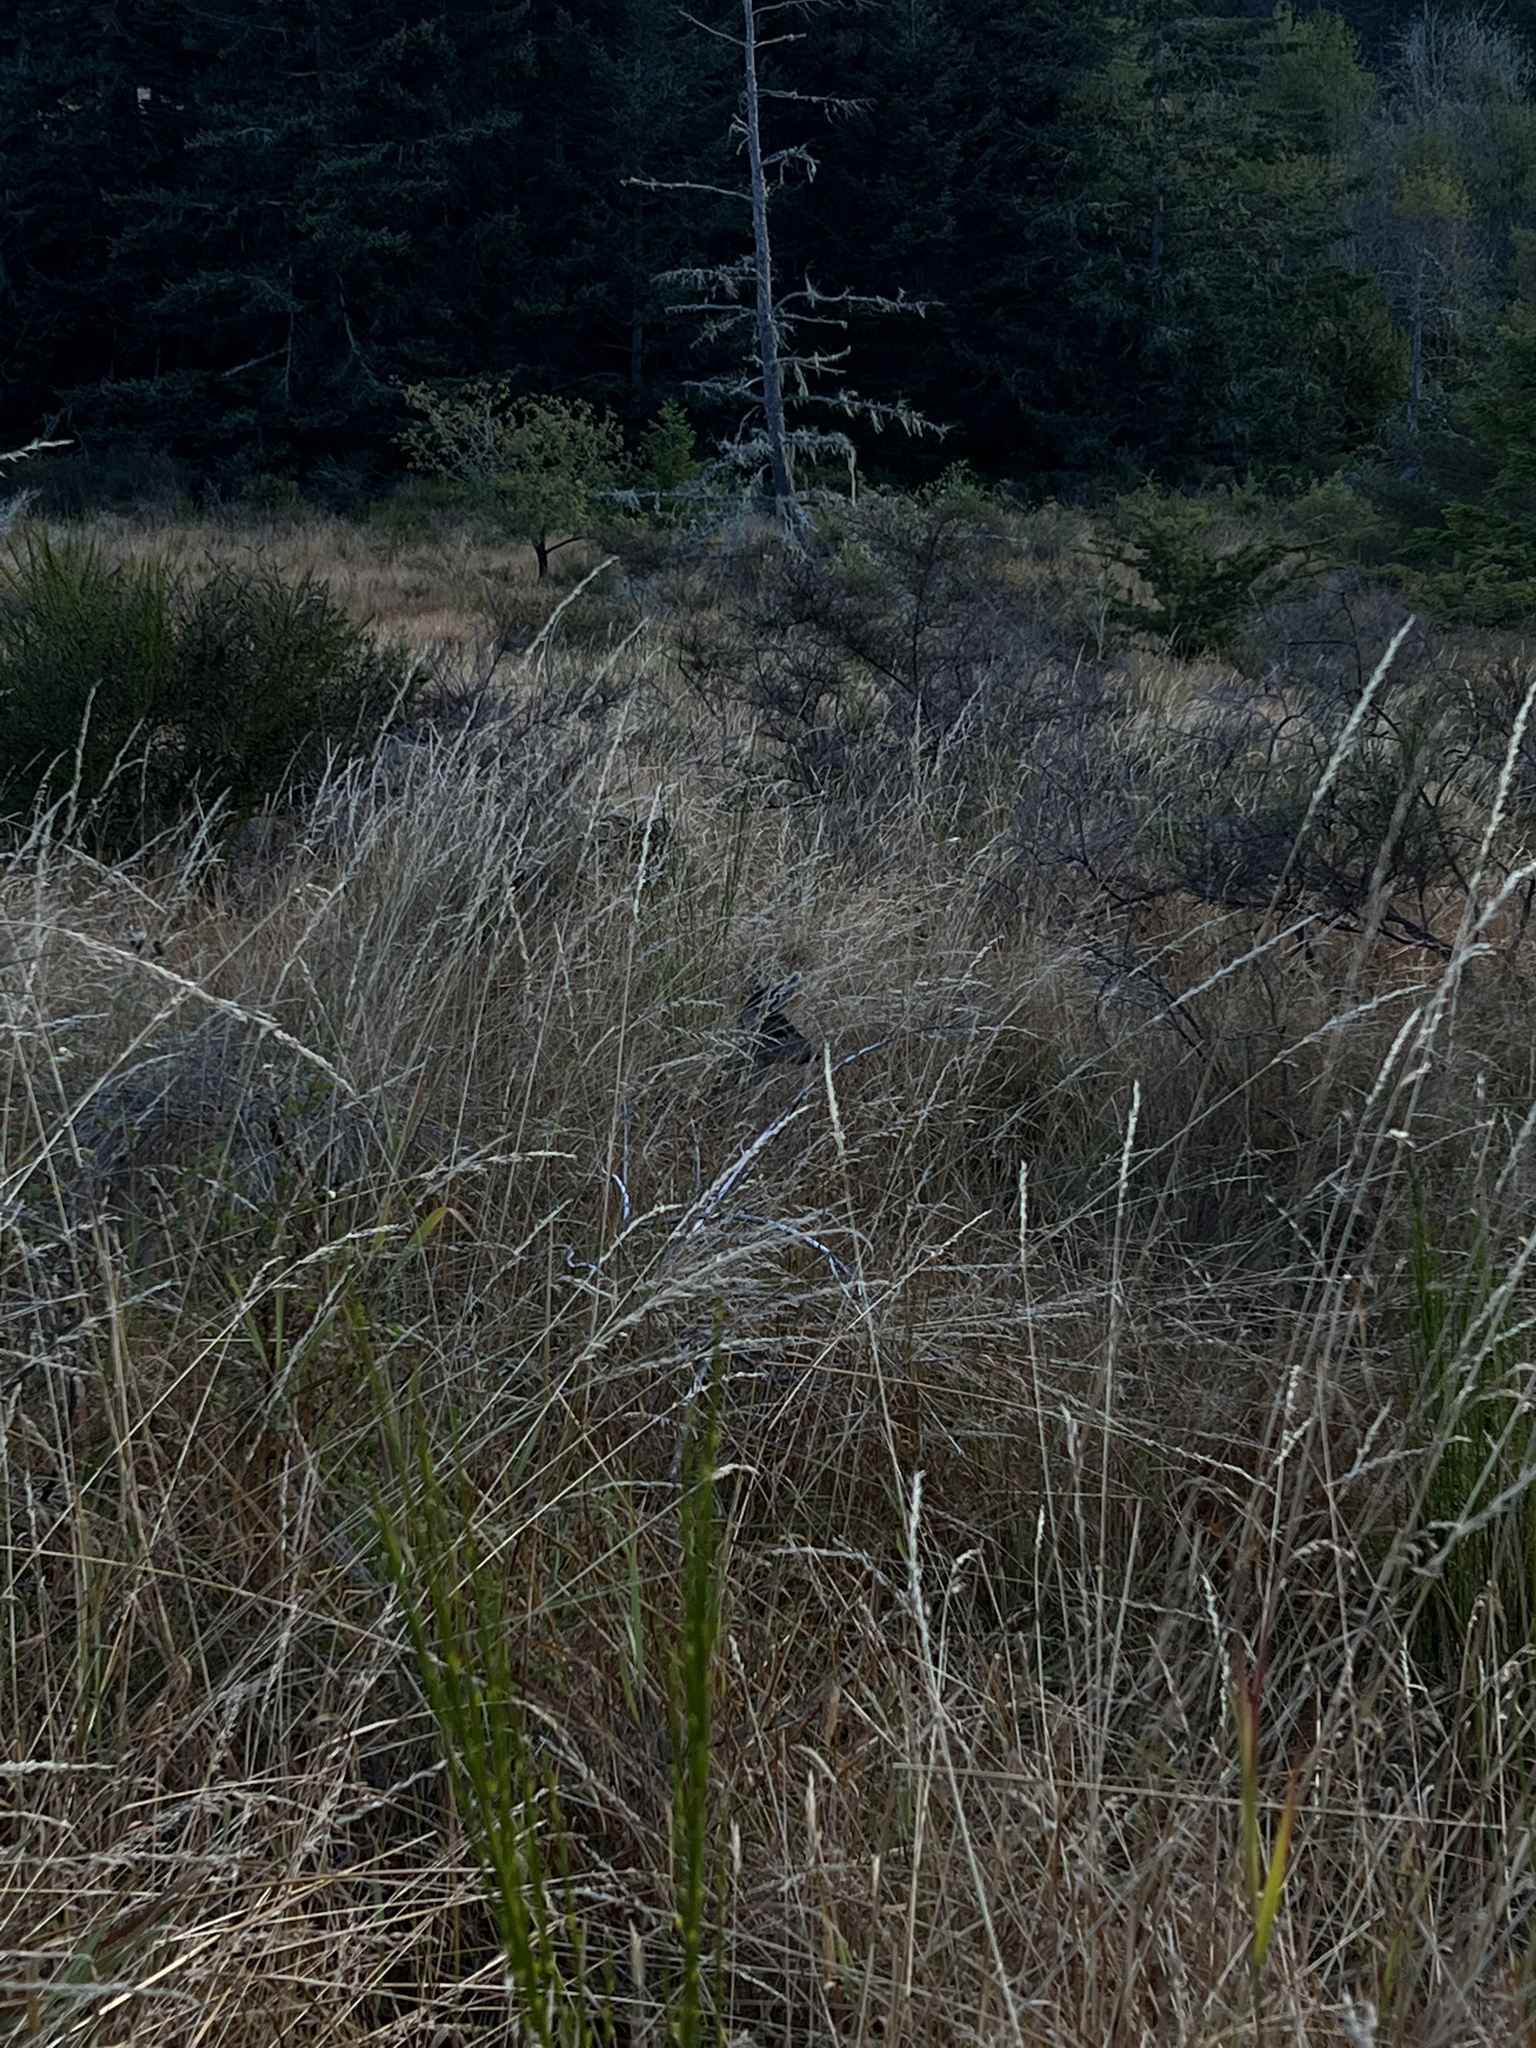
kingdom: Animalia
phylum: Chordata
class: Mammalia
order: Artiodactyla
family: Cervidae
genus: Odocoileus
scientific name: Odocoileus hemionus
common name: Mule deer
